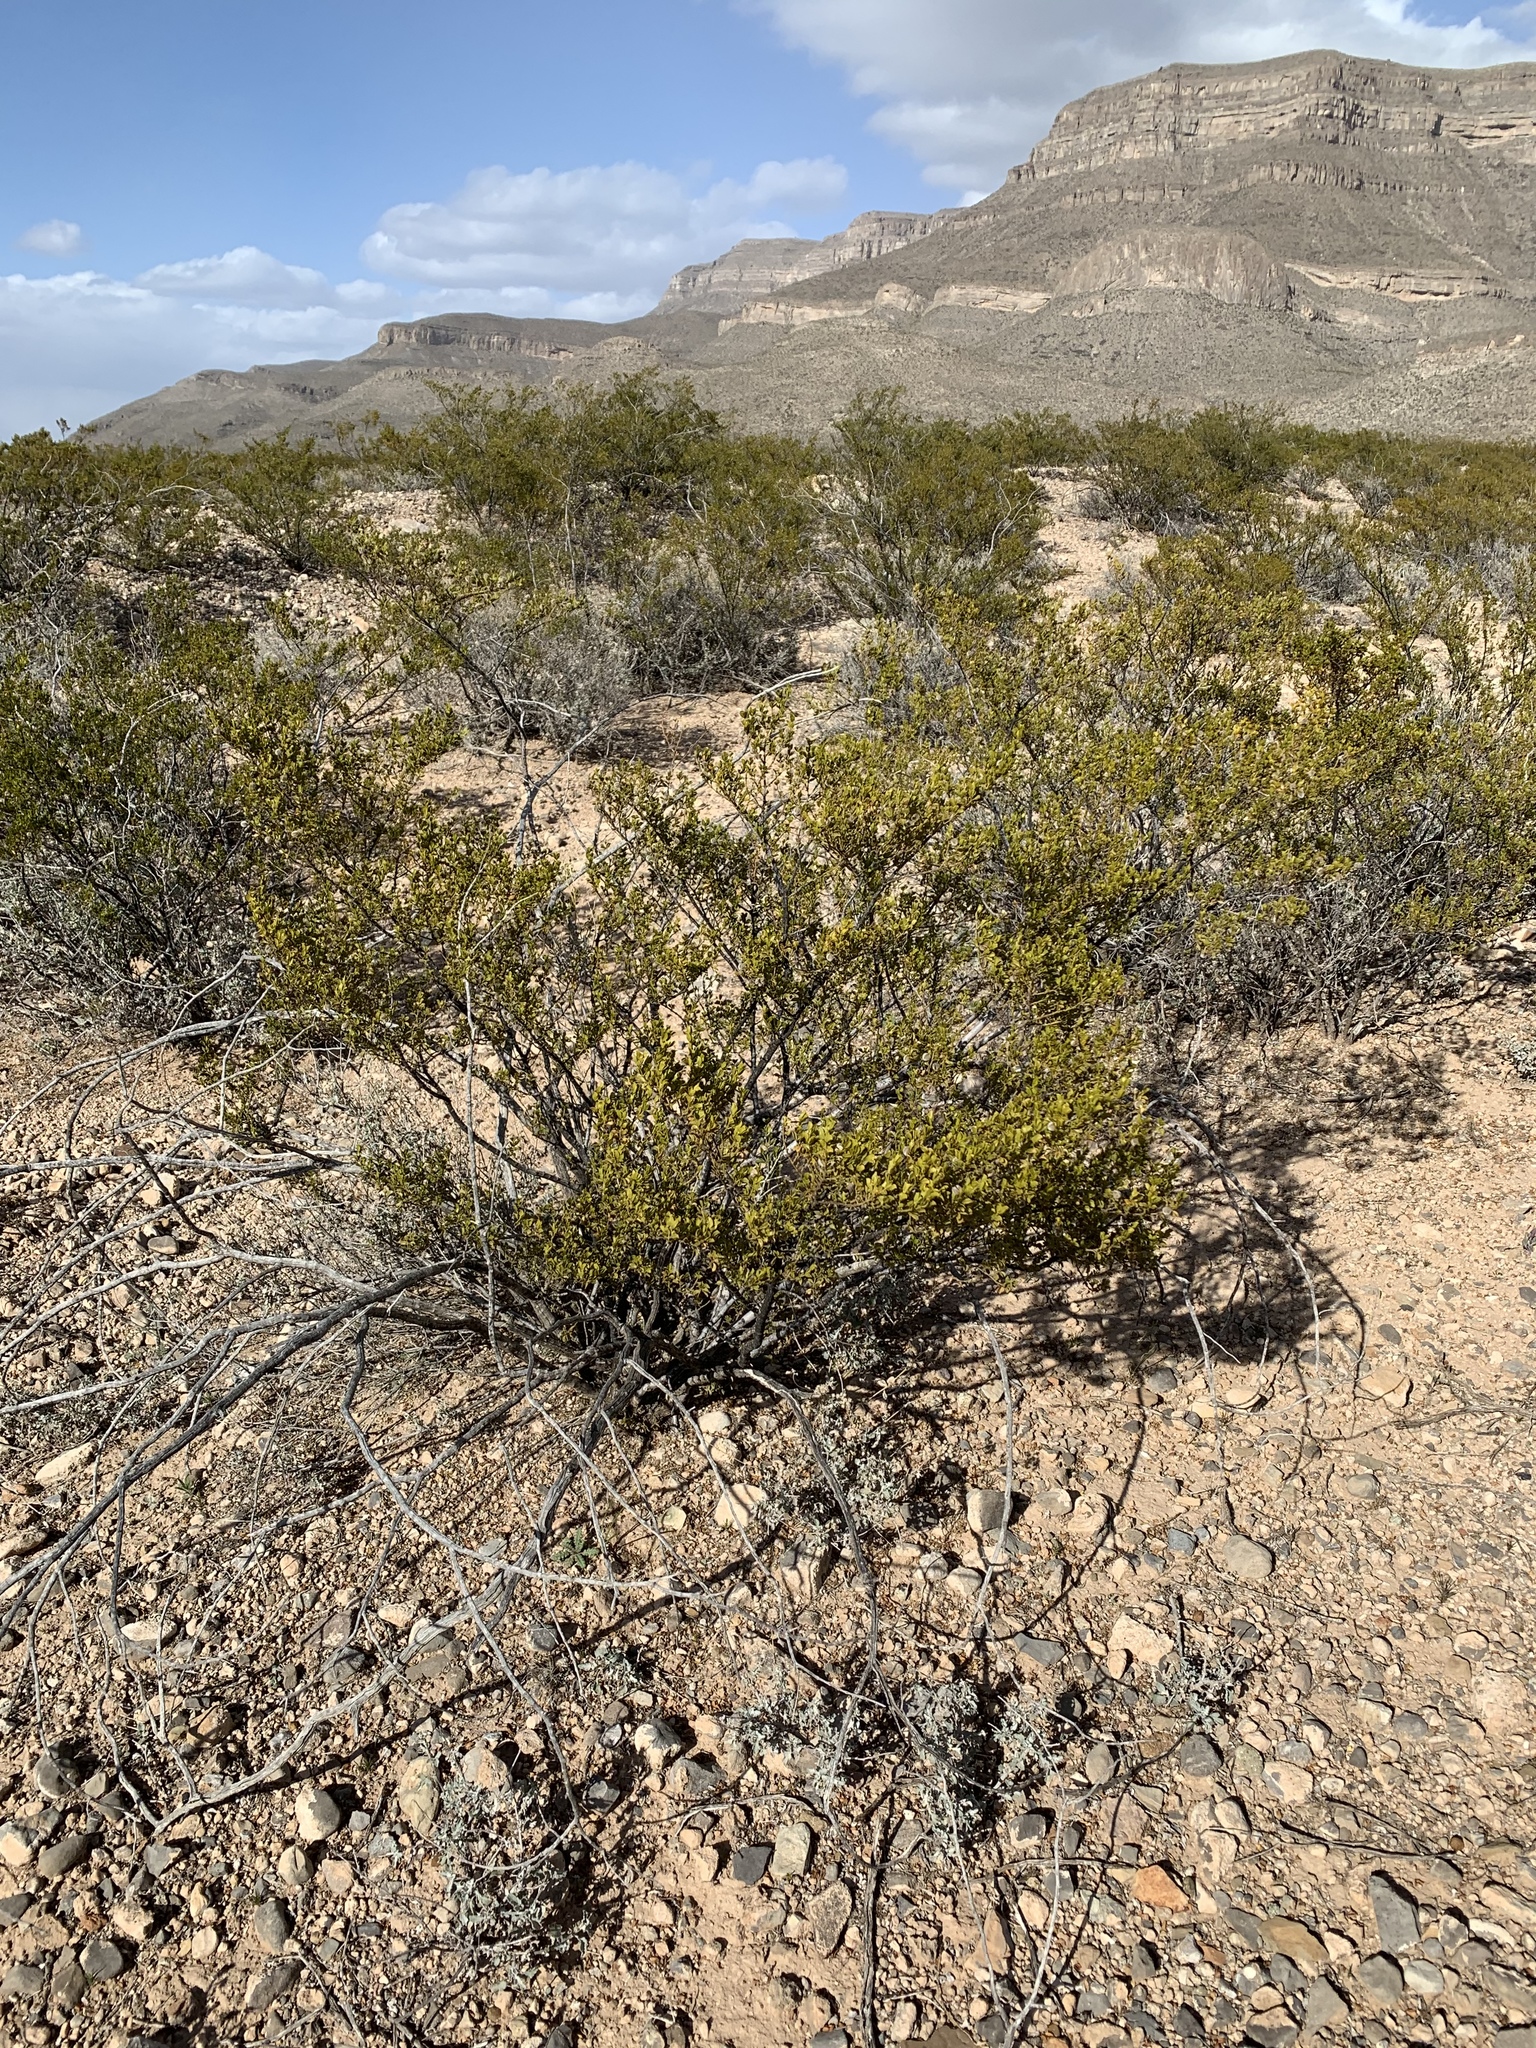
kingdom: Plantae
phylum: Tracheophyta
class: Magnoliopsida
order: Zygophyllales
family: Zygophyllaceae
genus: Larrea
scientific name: Larrea tridentata
